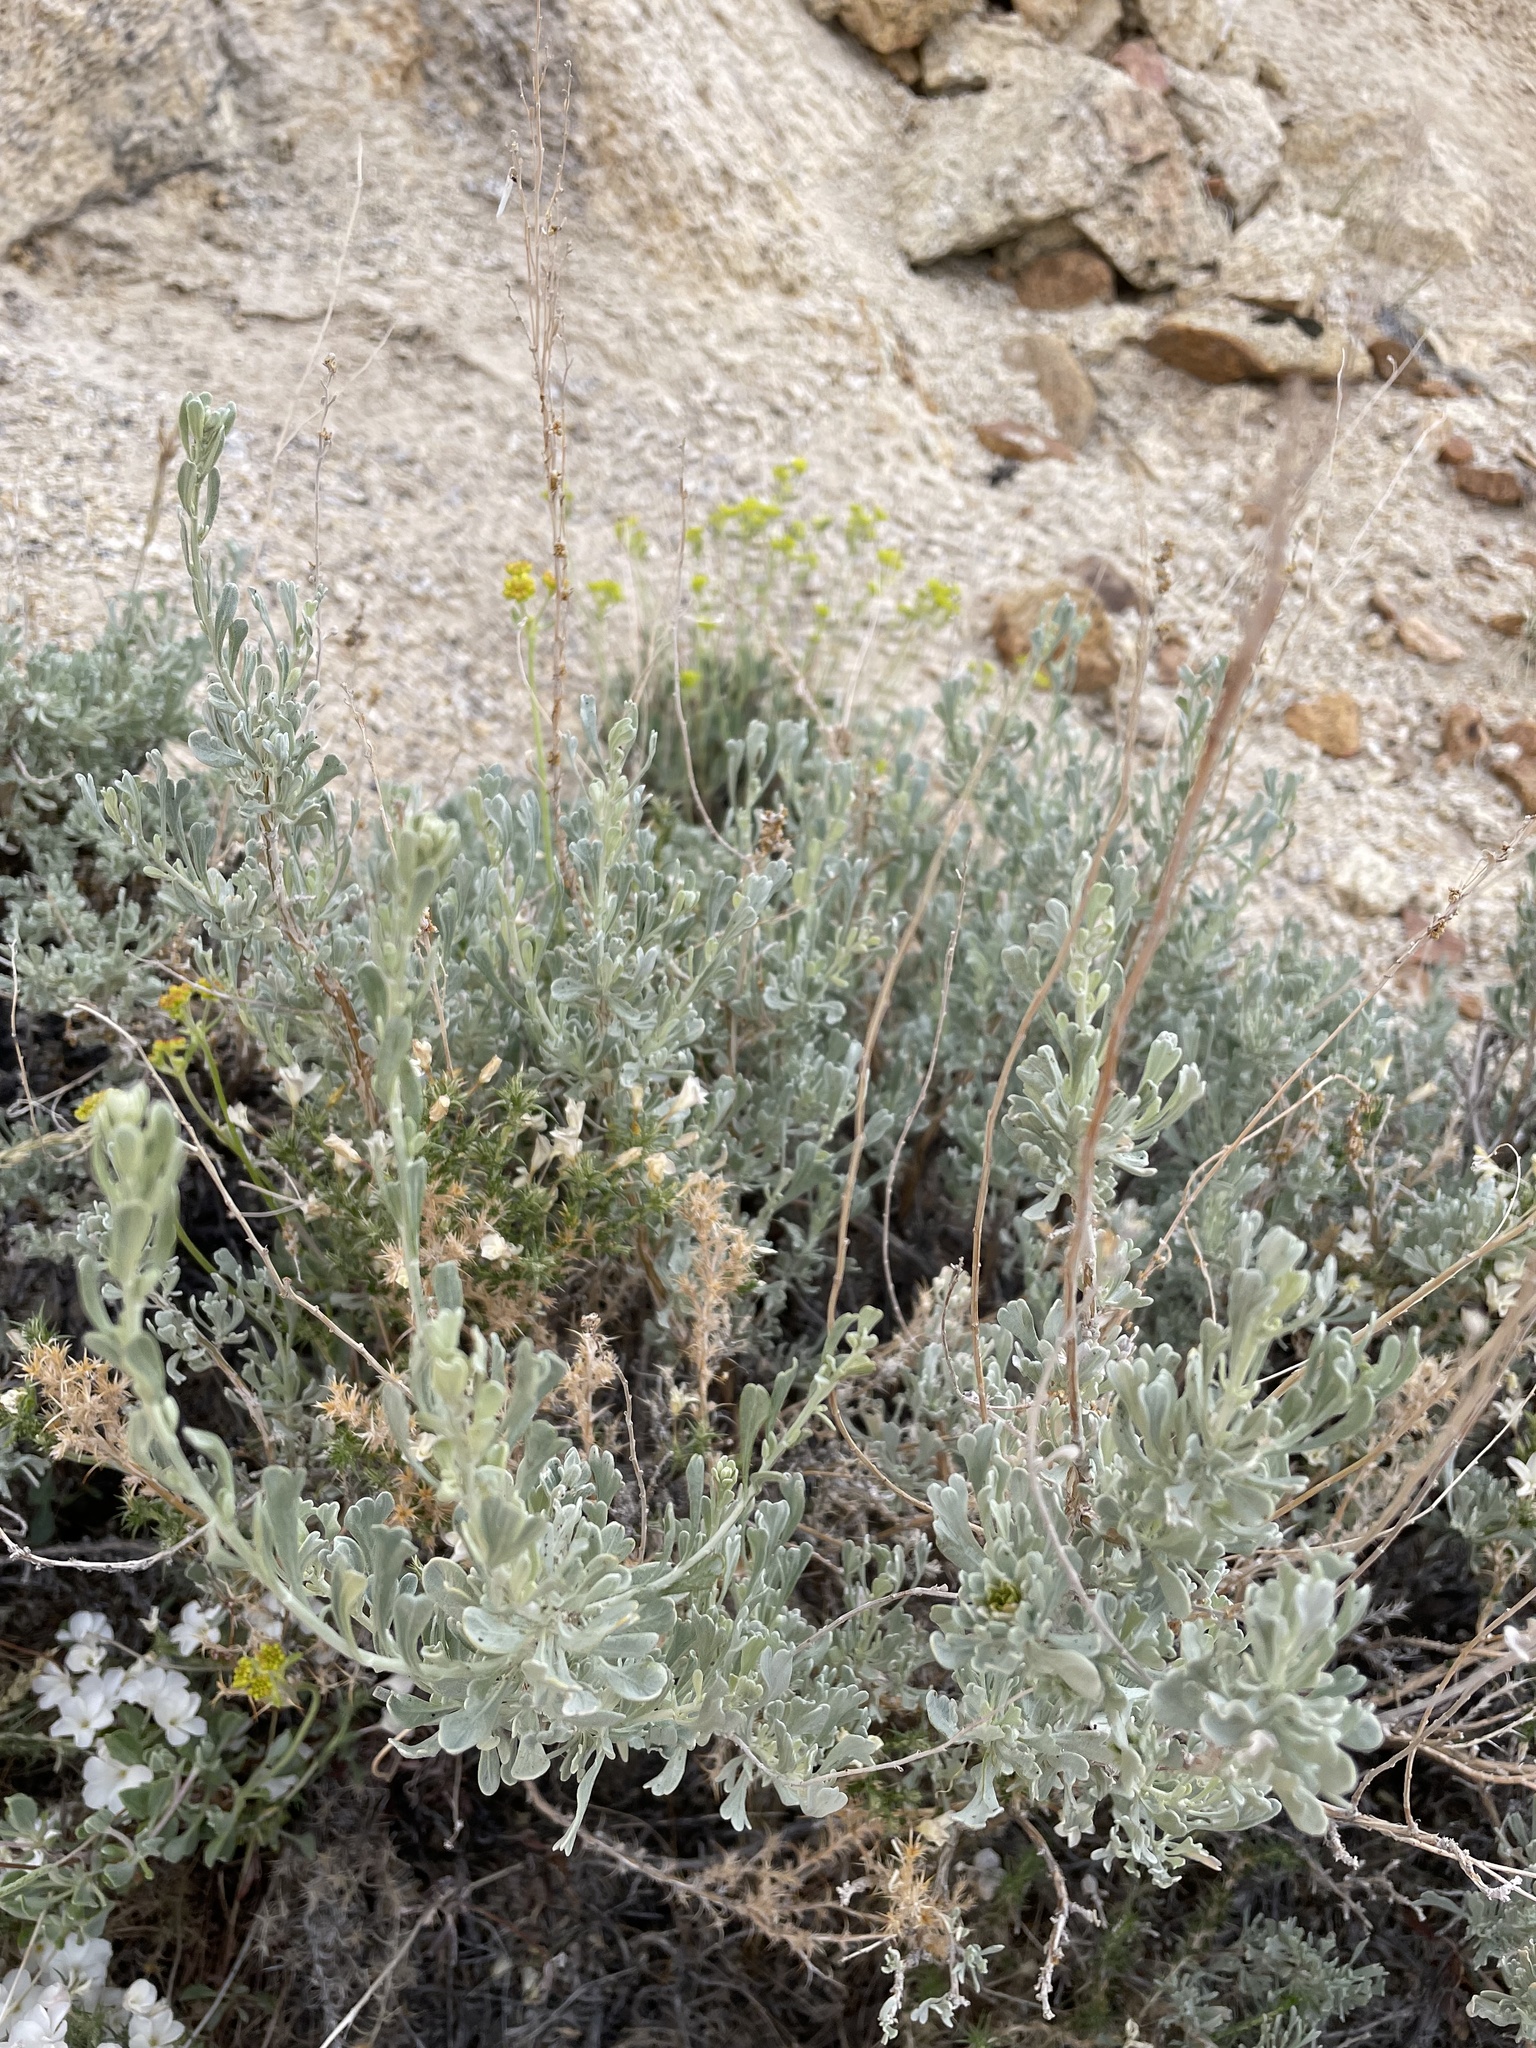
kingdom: Plantae
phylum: Tracheophyta
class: Magnoliopsida
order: Asterales
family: Asteraceae
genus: Artemisia
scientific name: Artemisia tridentata
